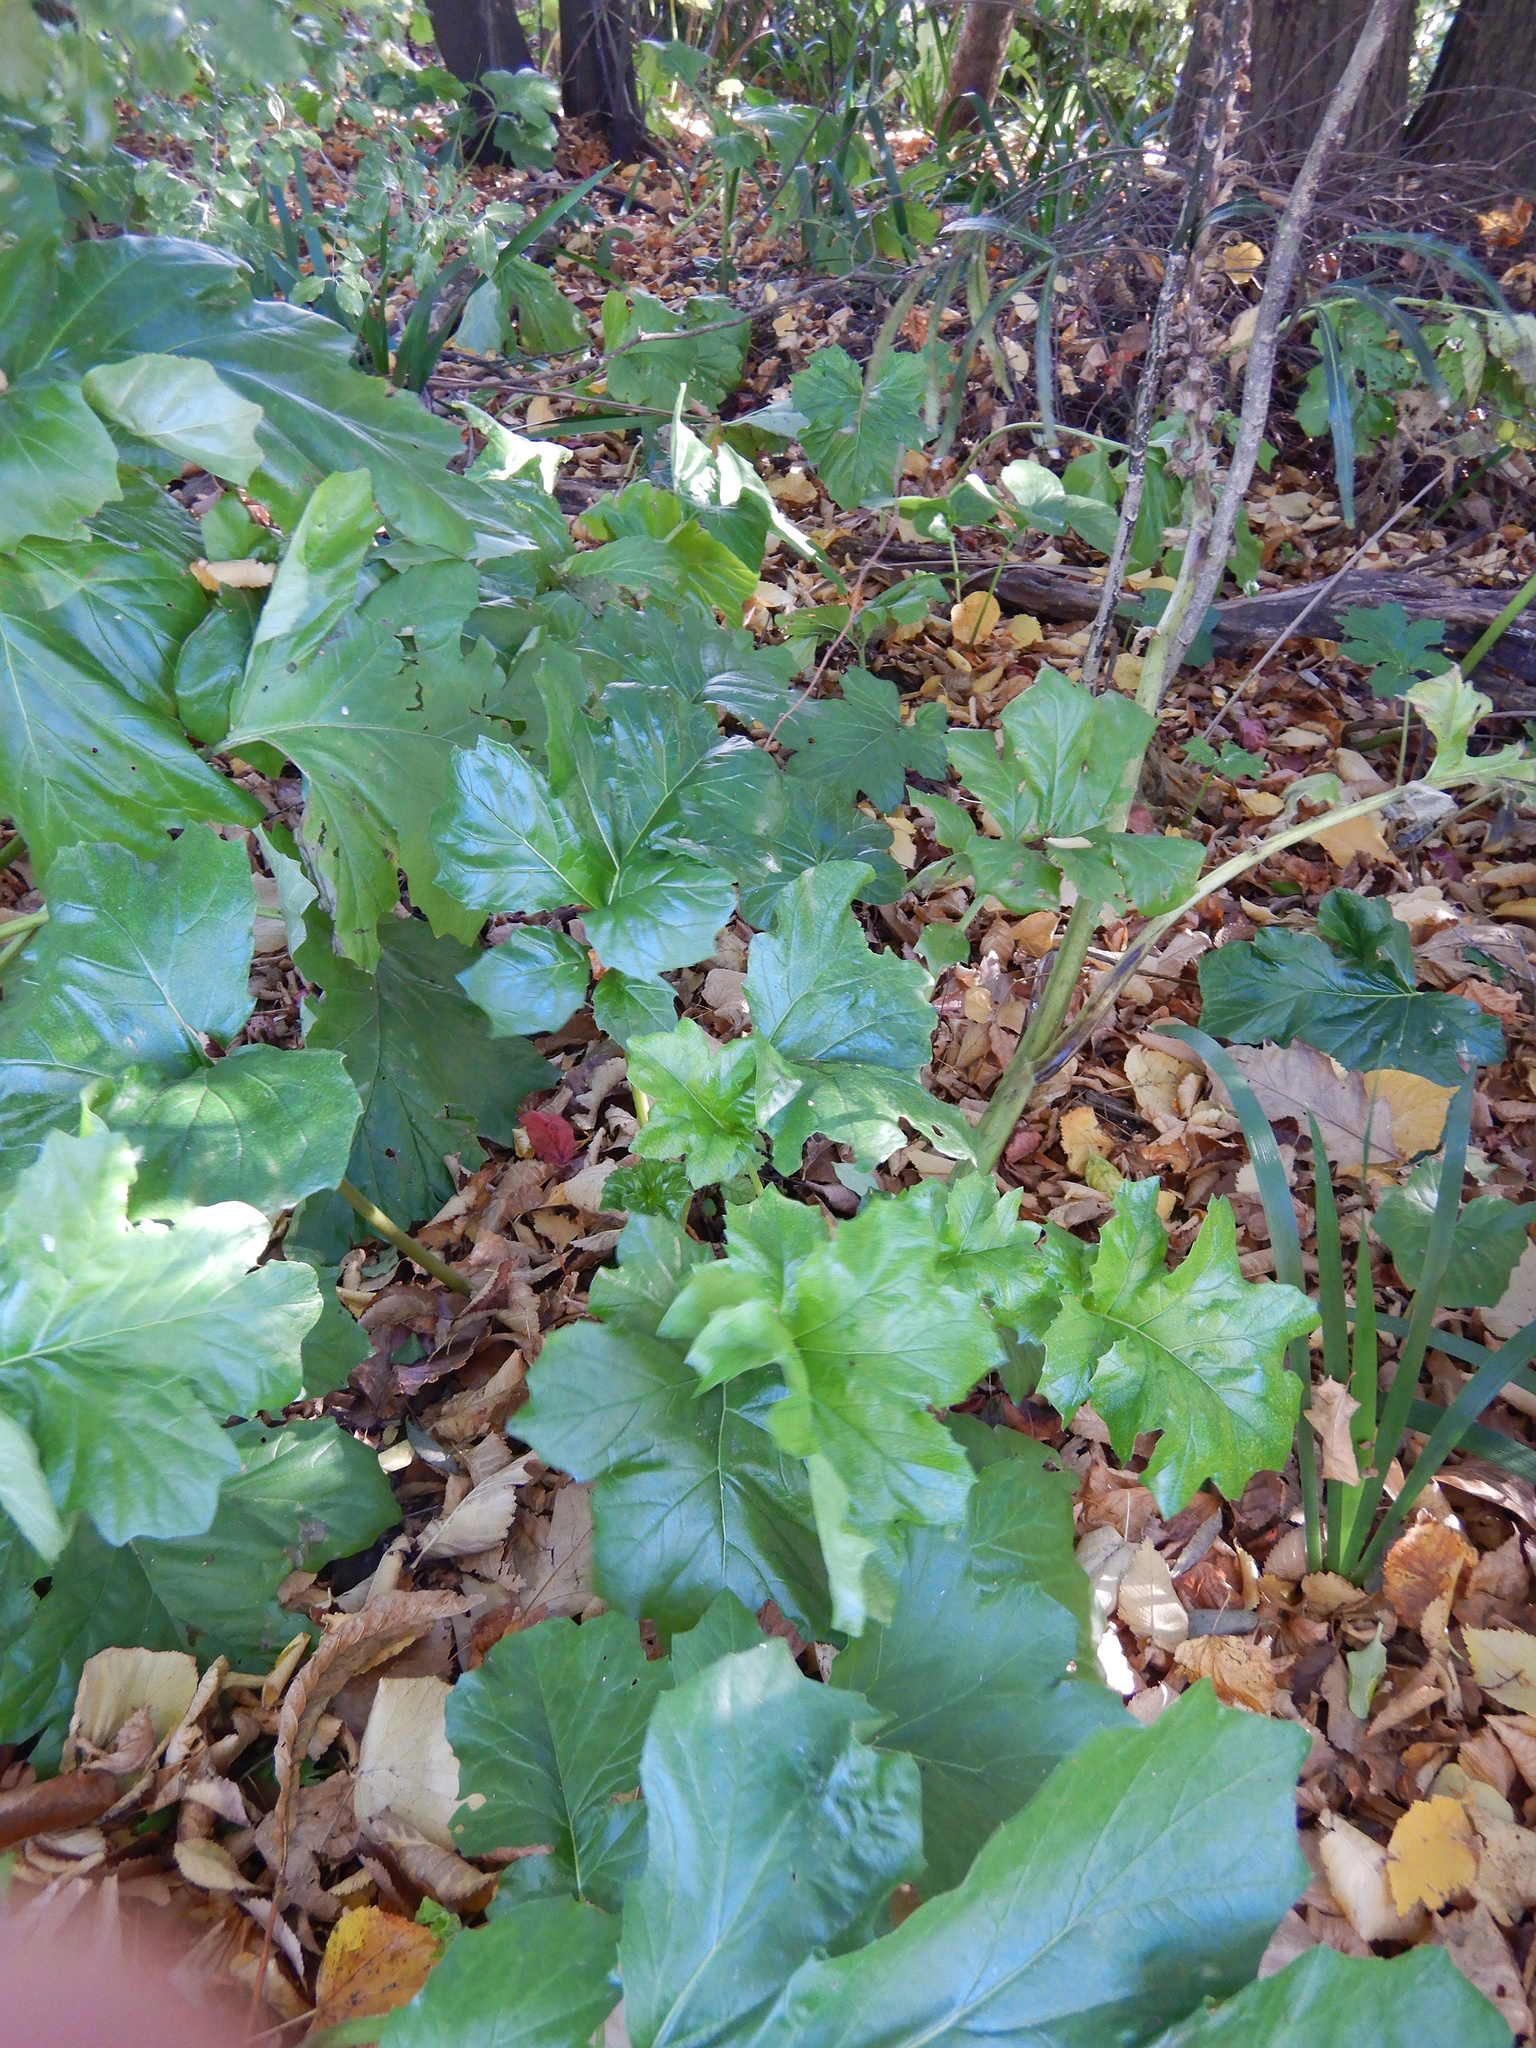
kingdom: Plantae
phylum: Tracheophyta
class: Magnoliopsida
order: Lamiales
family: Acanthaceae
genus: Acanthus
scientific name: Acanthus mollis
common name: Bear's-breech
